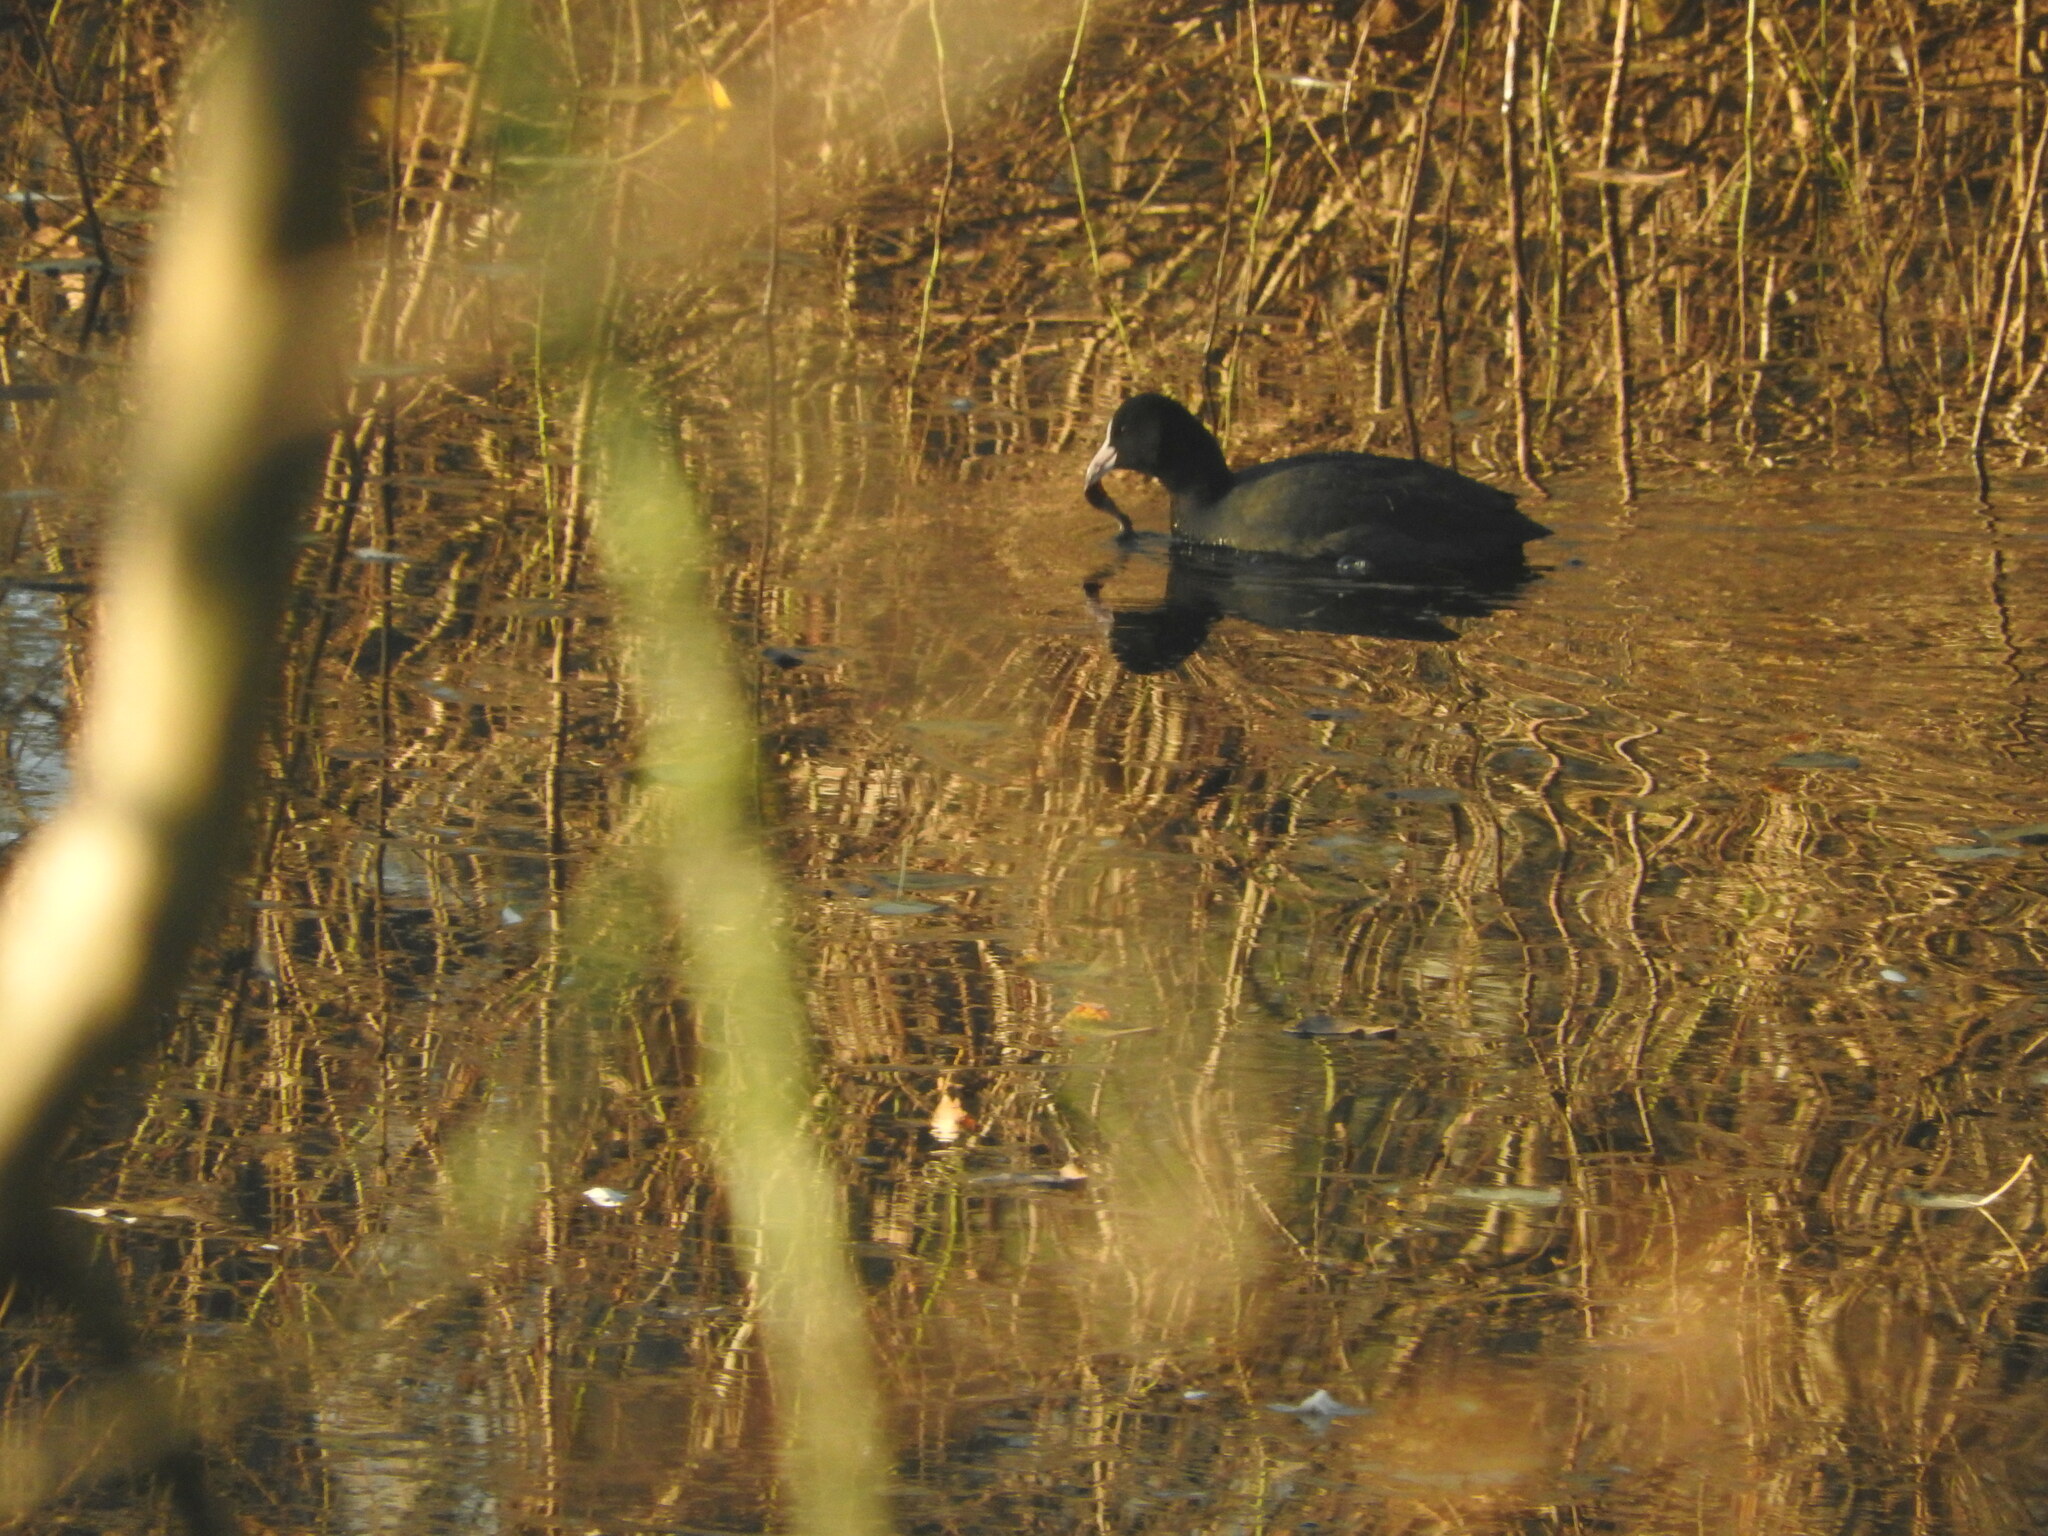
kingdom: Animalia
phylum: Chordata
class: Aves
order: Gruiformes
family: Rallidae
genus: Fulica
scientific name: Fulica atra
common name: Eurasian coot
